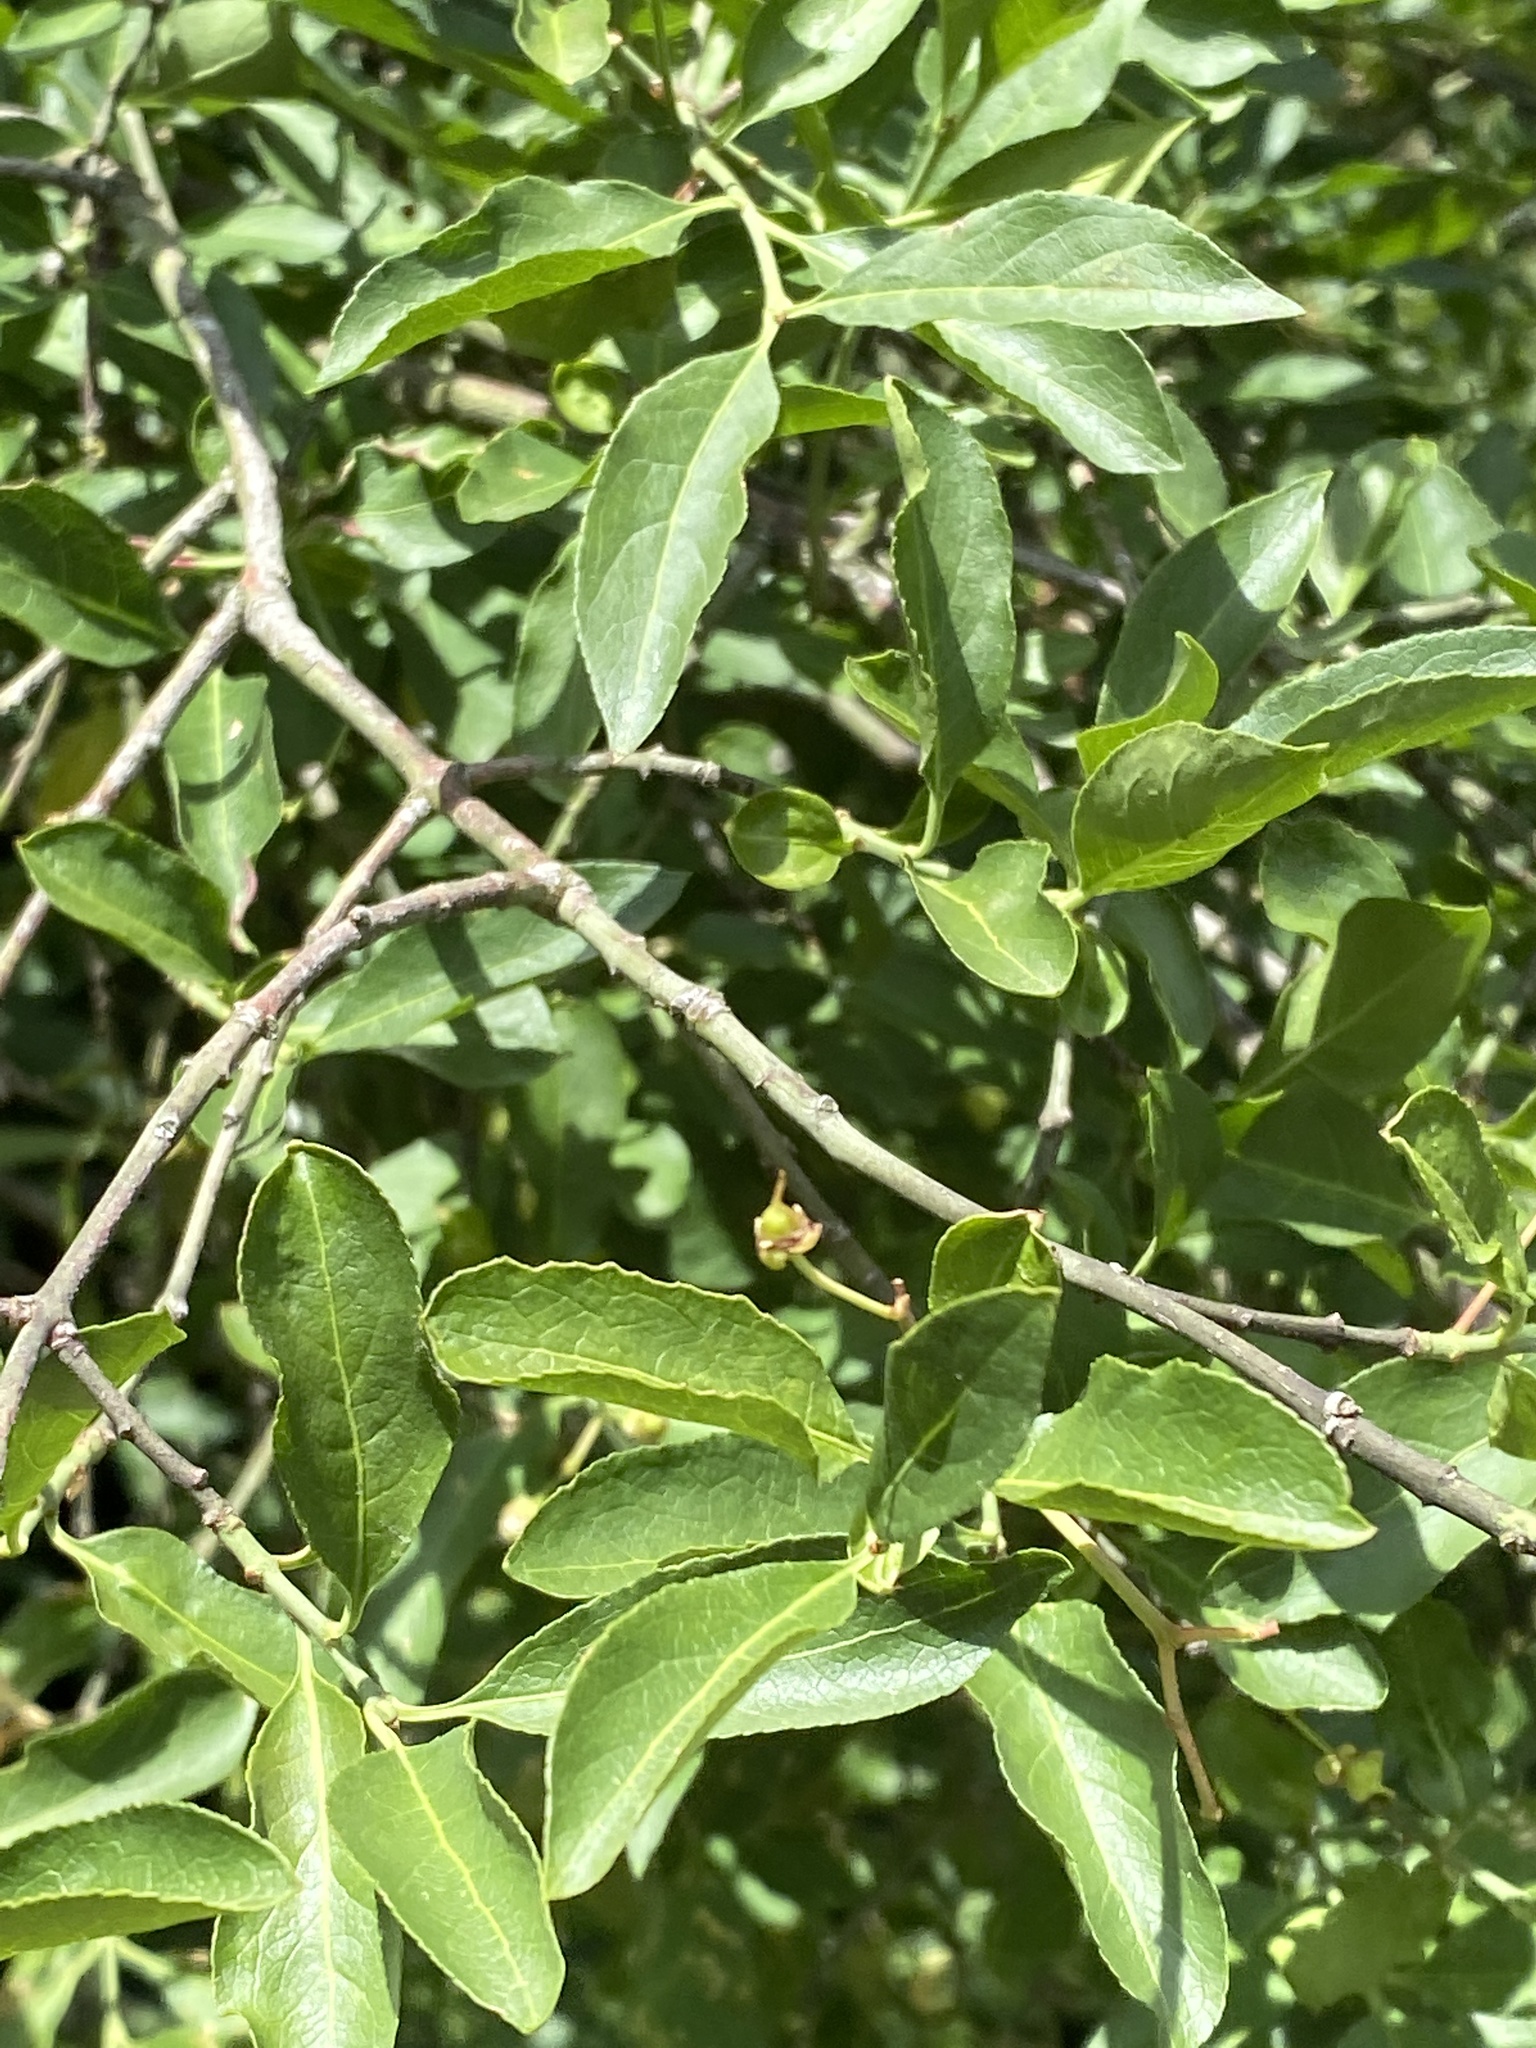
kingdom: Plantae
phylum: Tracheophyta
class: Magnoliopsida
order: Celastrales
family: Celastraceae
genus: Euonymus
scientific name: Euonymus europaeus
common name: Spindle
